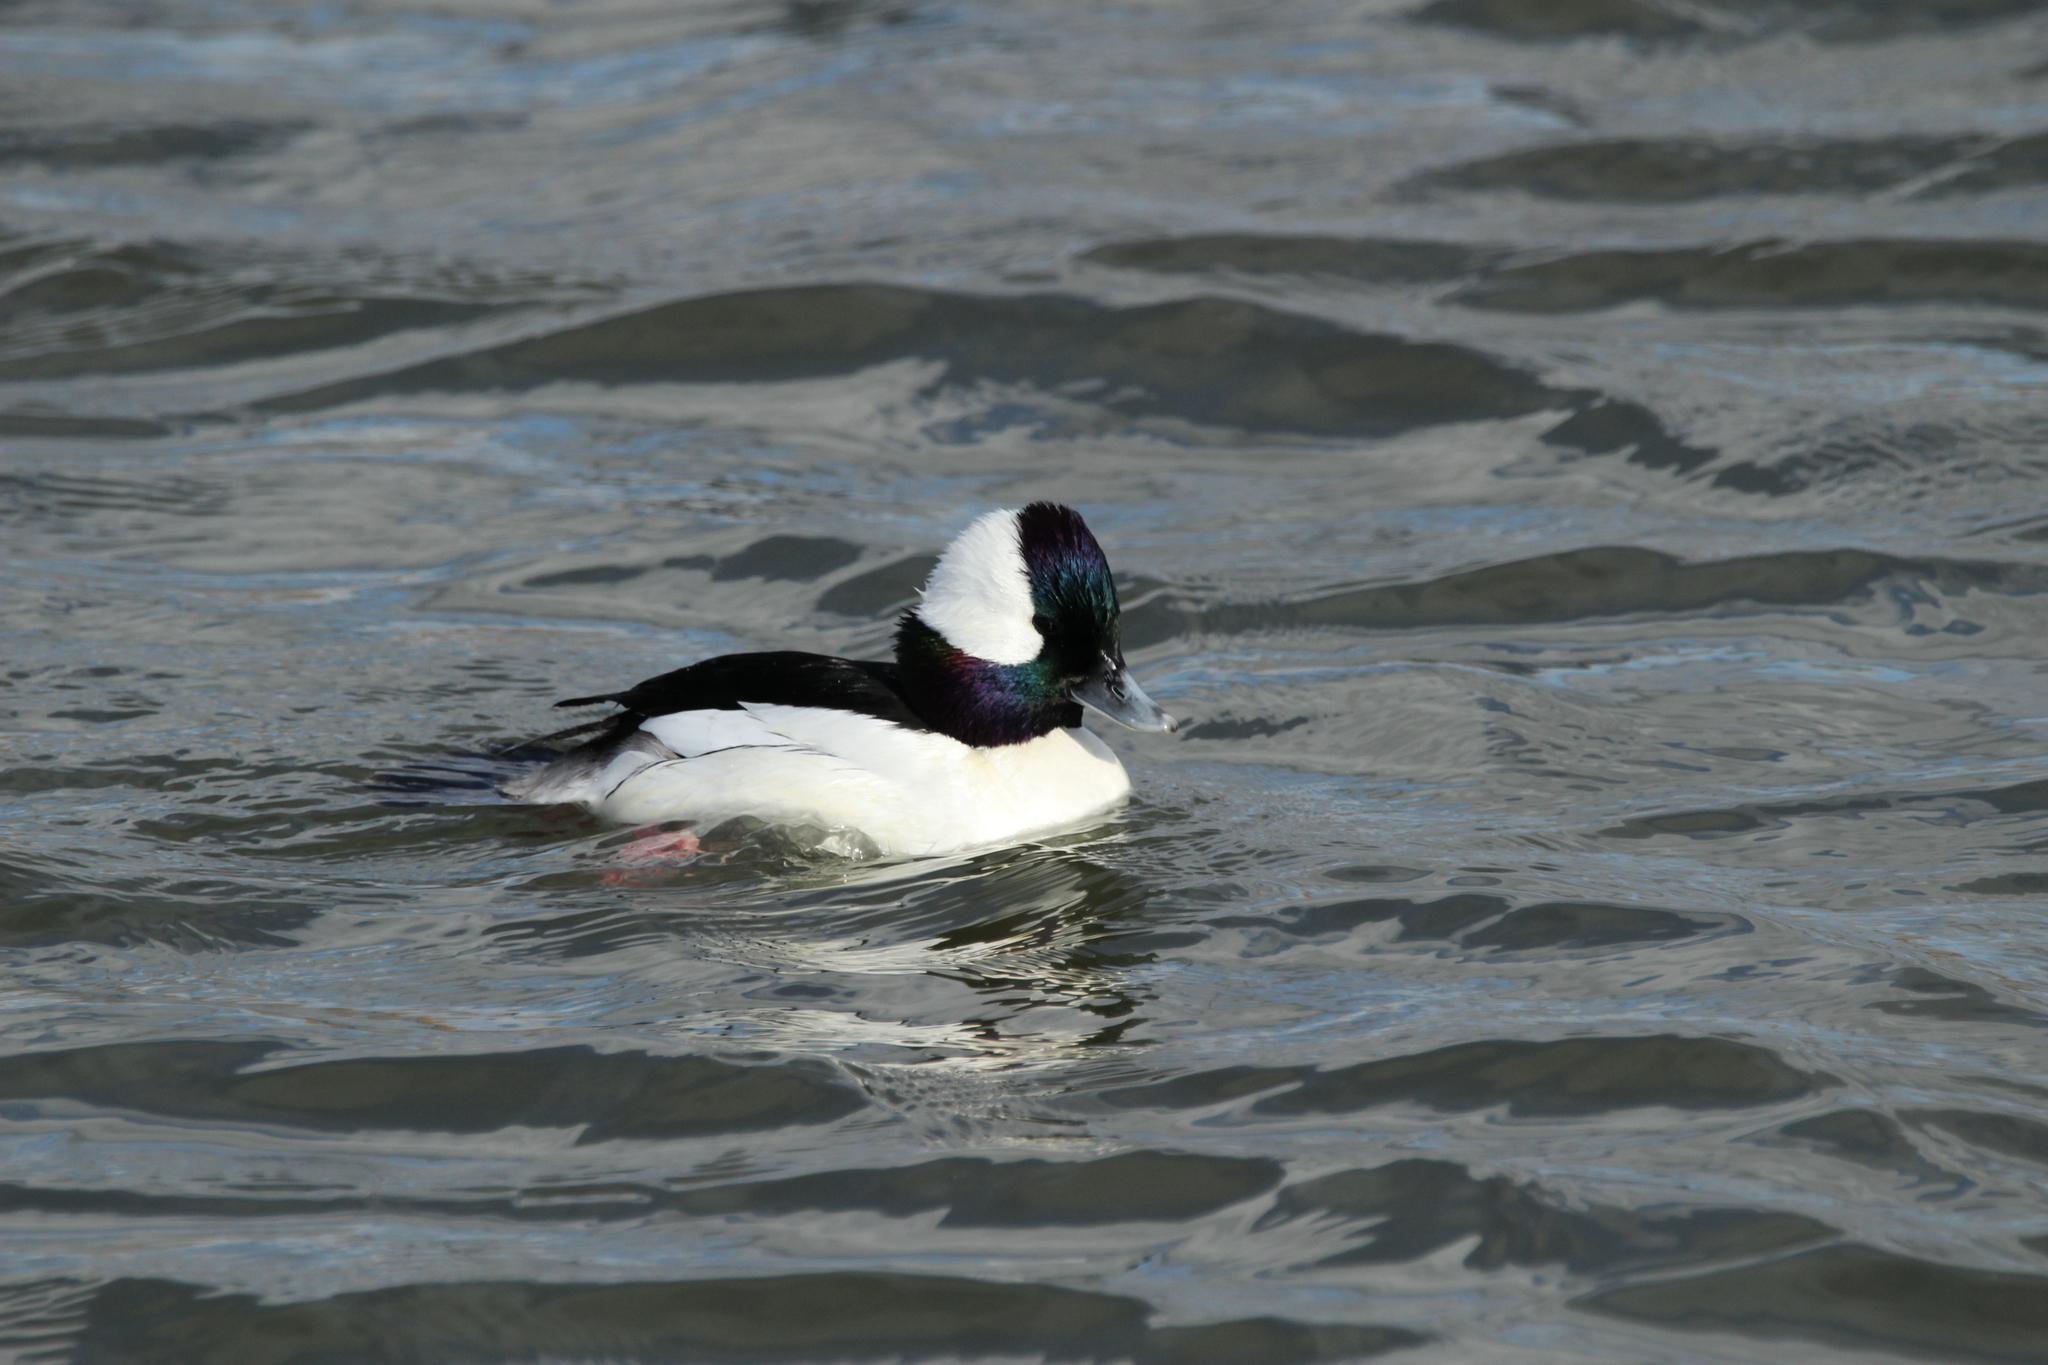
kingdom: Animalia
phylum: Chordata
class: Aves
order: Anseriformes
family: Anatidae
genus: Bucephala
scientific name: Bucephala albeola
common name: Bufflehead
